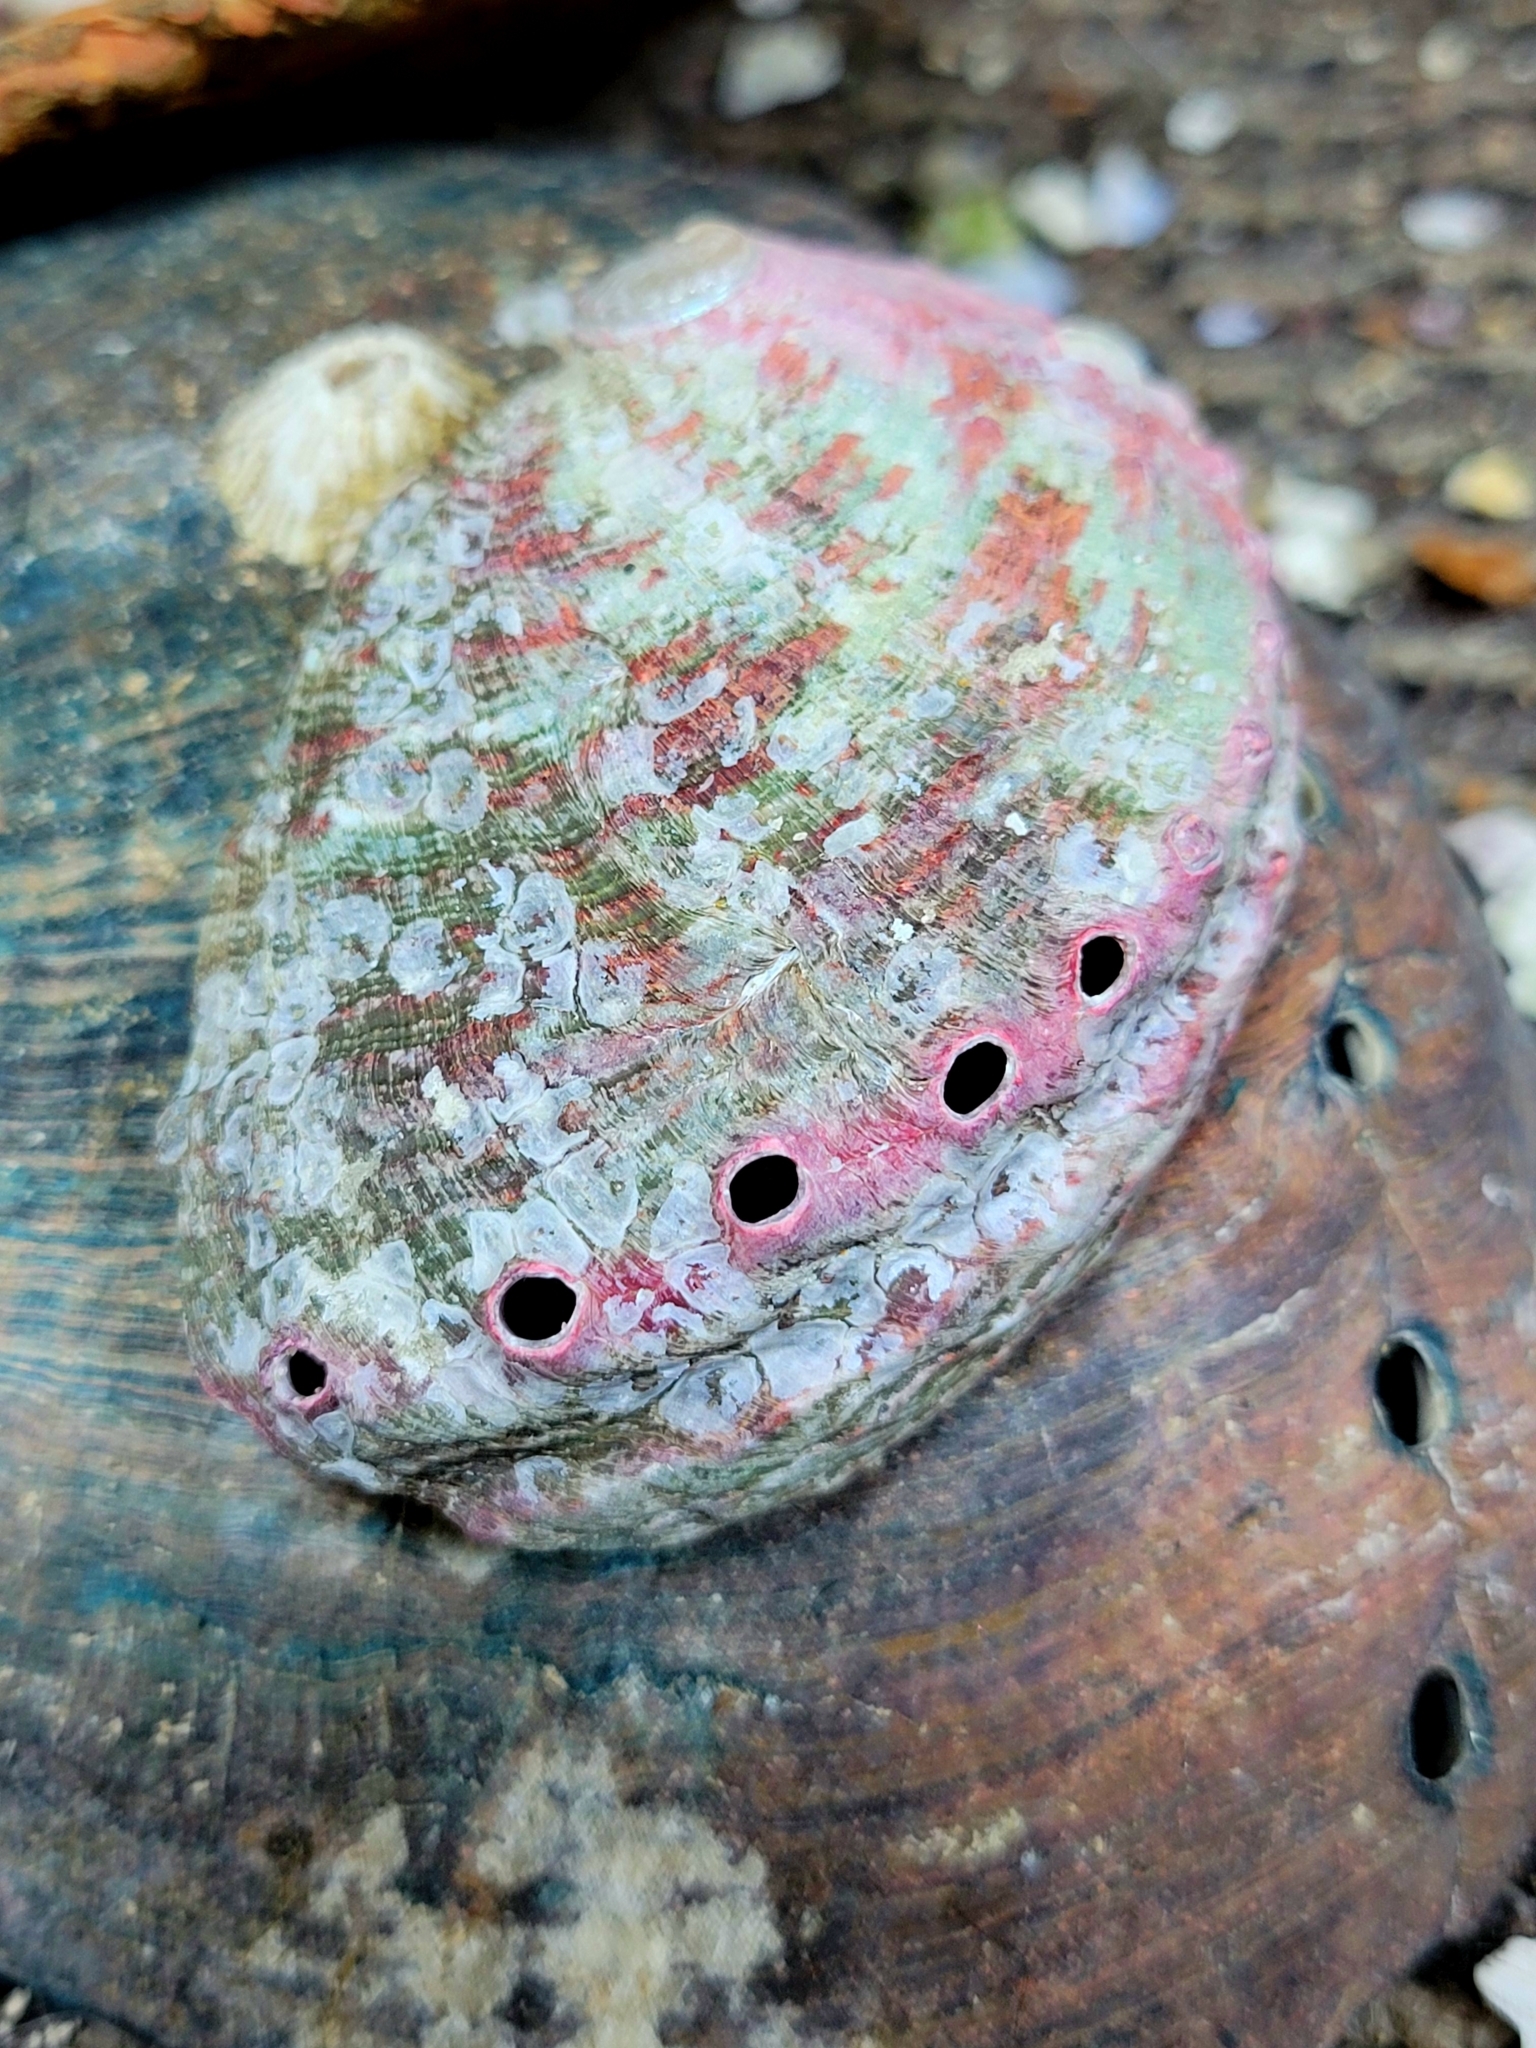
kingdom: Animalia
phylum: Mollusca
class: Gastropoda
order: Lepetellida
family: Haliotidae
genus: Haliotis
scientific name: Haliotis kamtschatkana
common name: Pinto abalone
